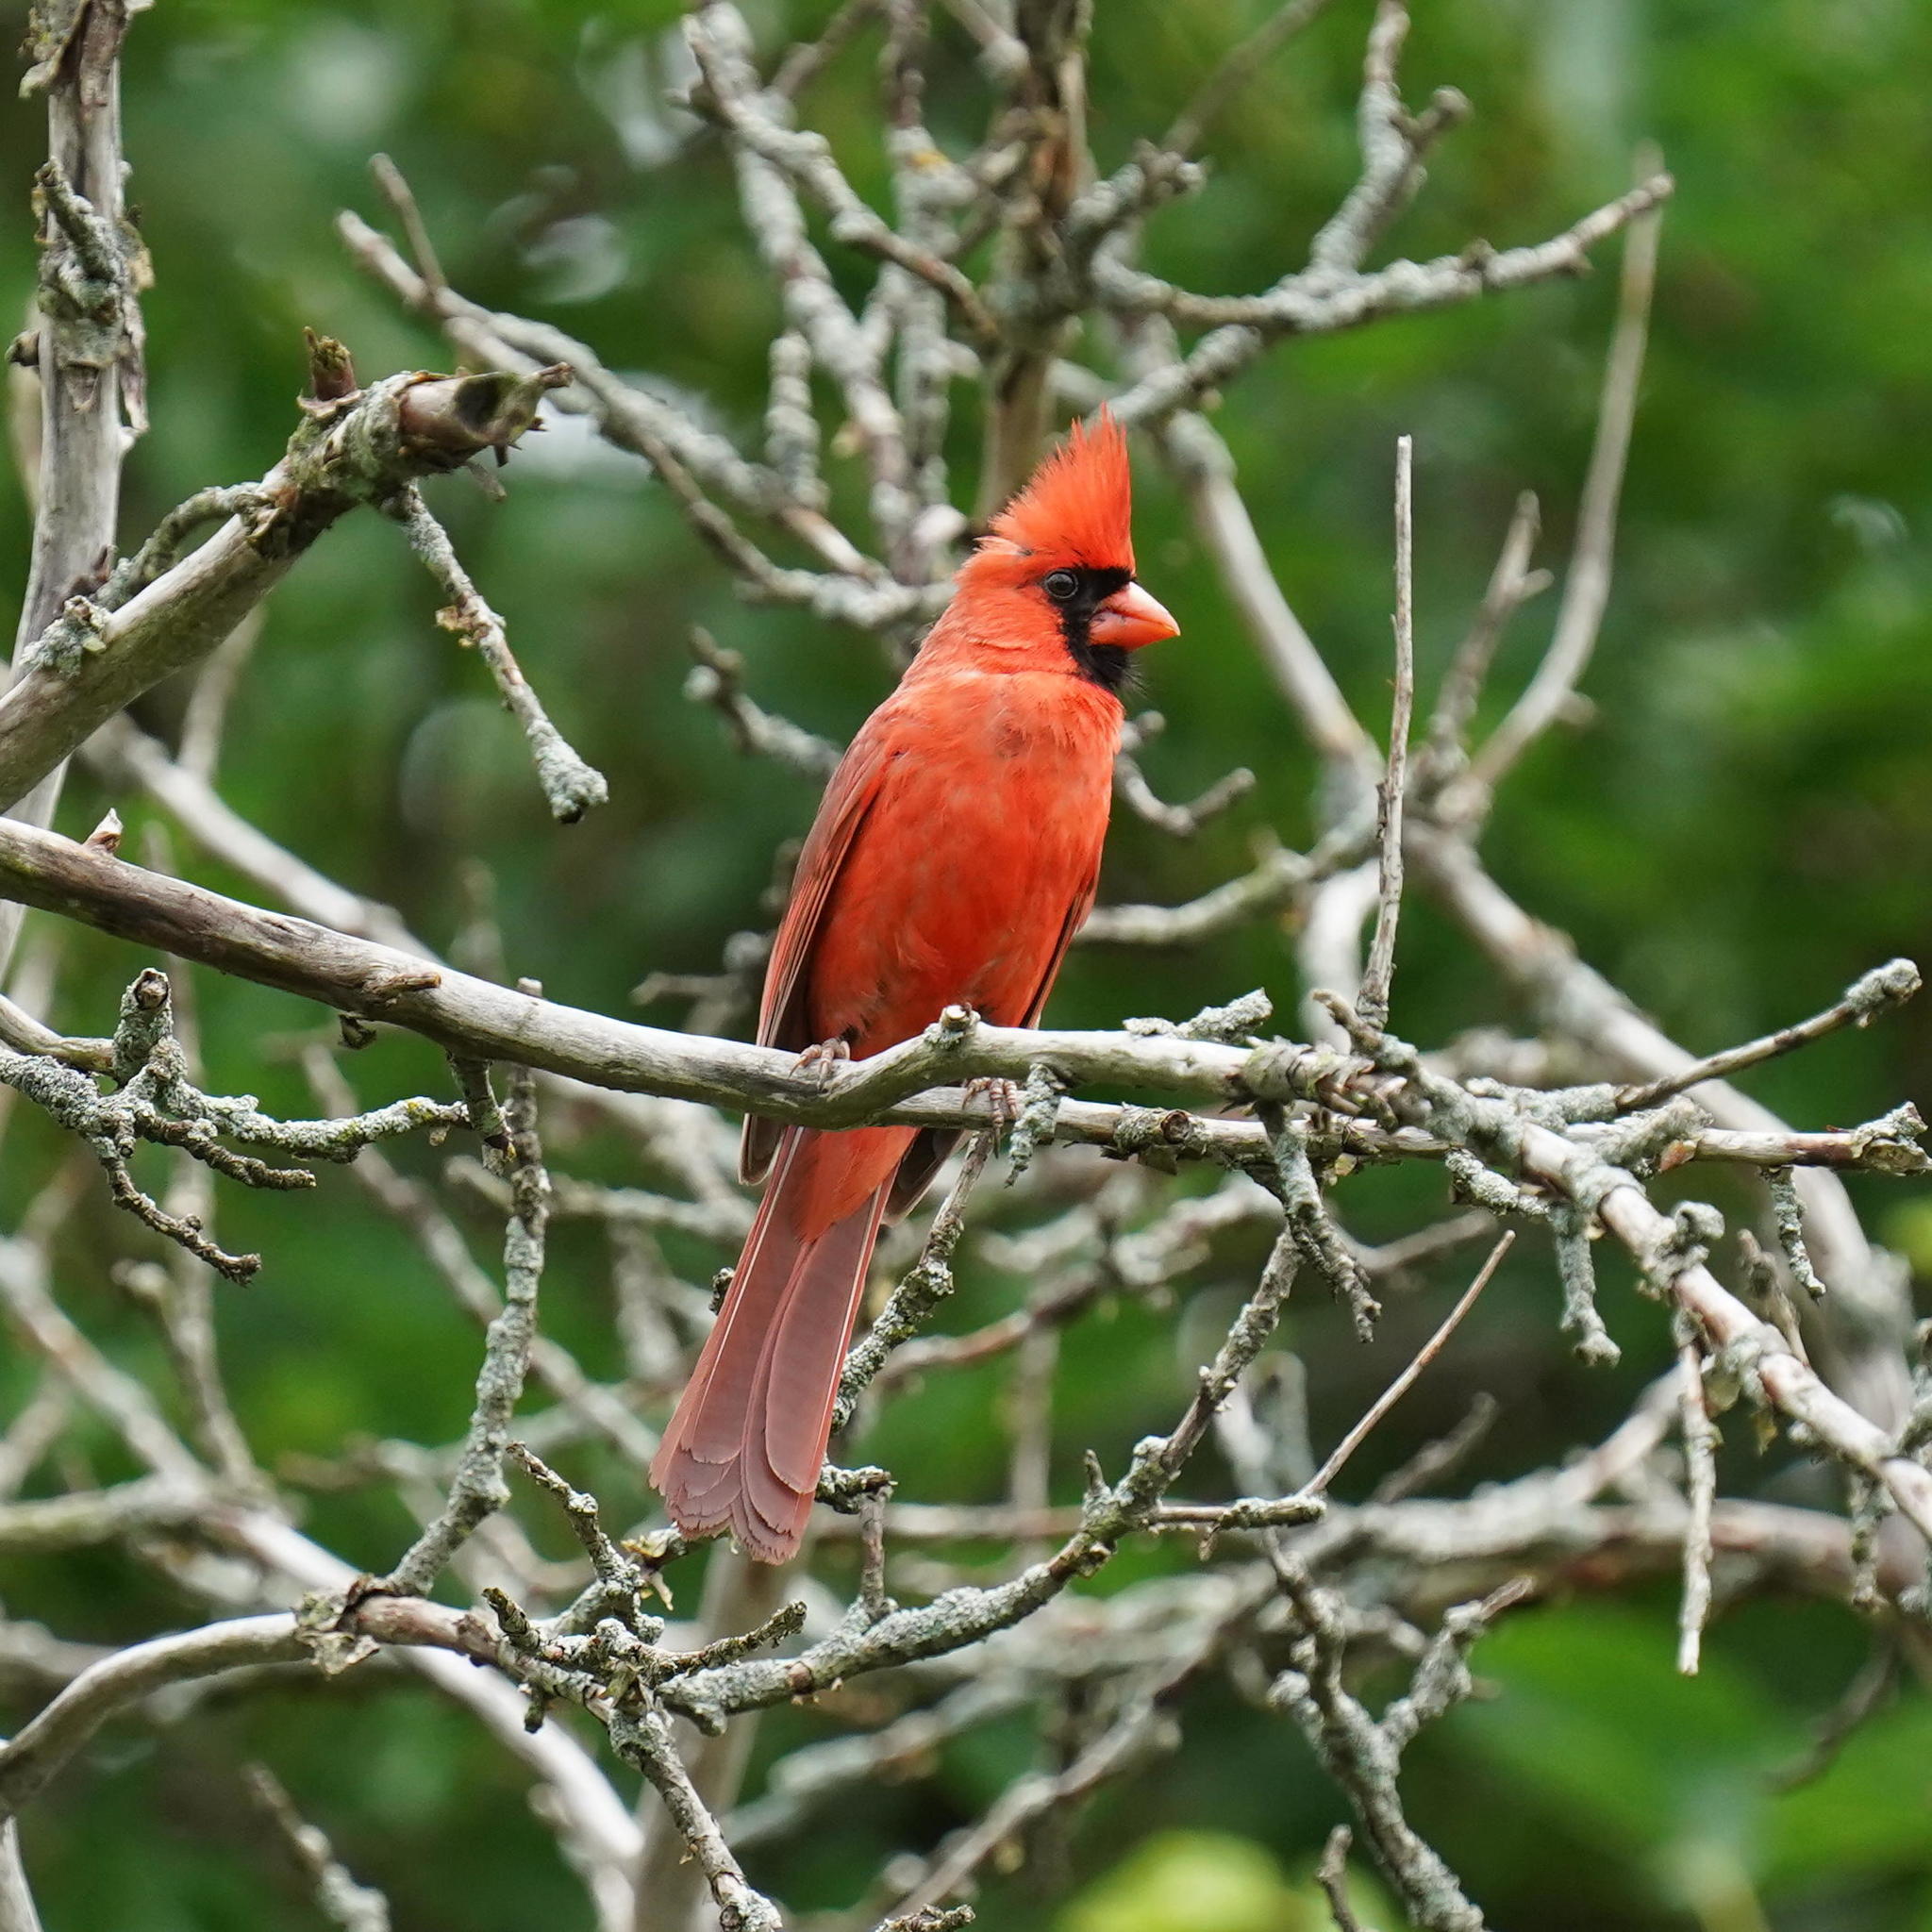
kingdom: Animalia
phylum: Chordata
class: Aves
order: Passeriformes
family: Cardinalidae
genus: Cardinalis
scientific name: Cardinalis cardinalis
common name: Northern cardinal
